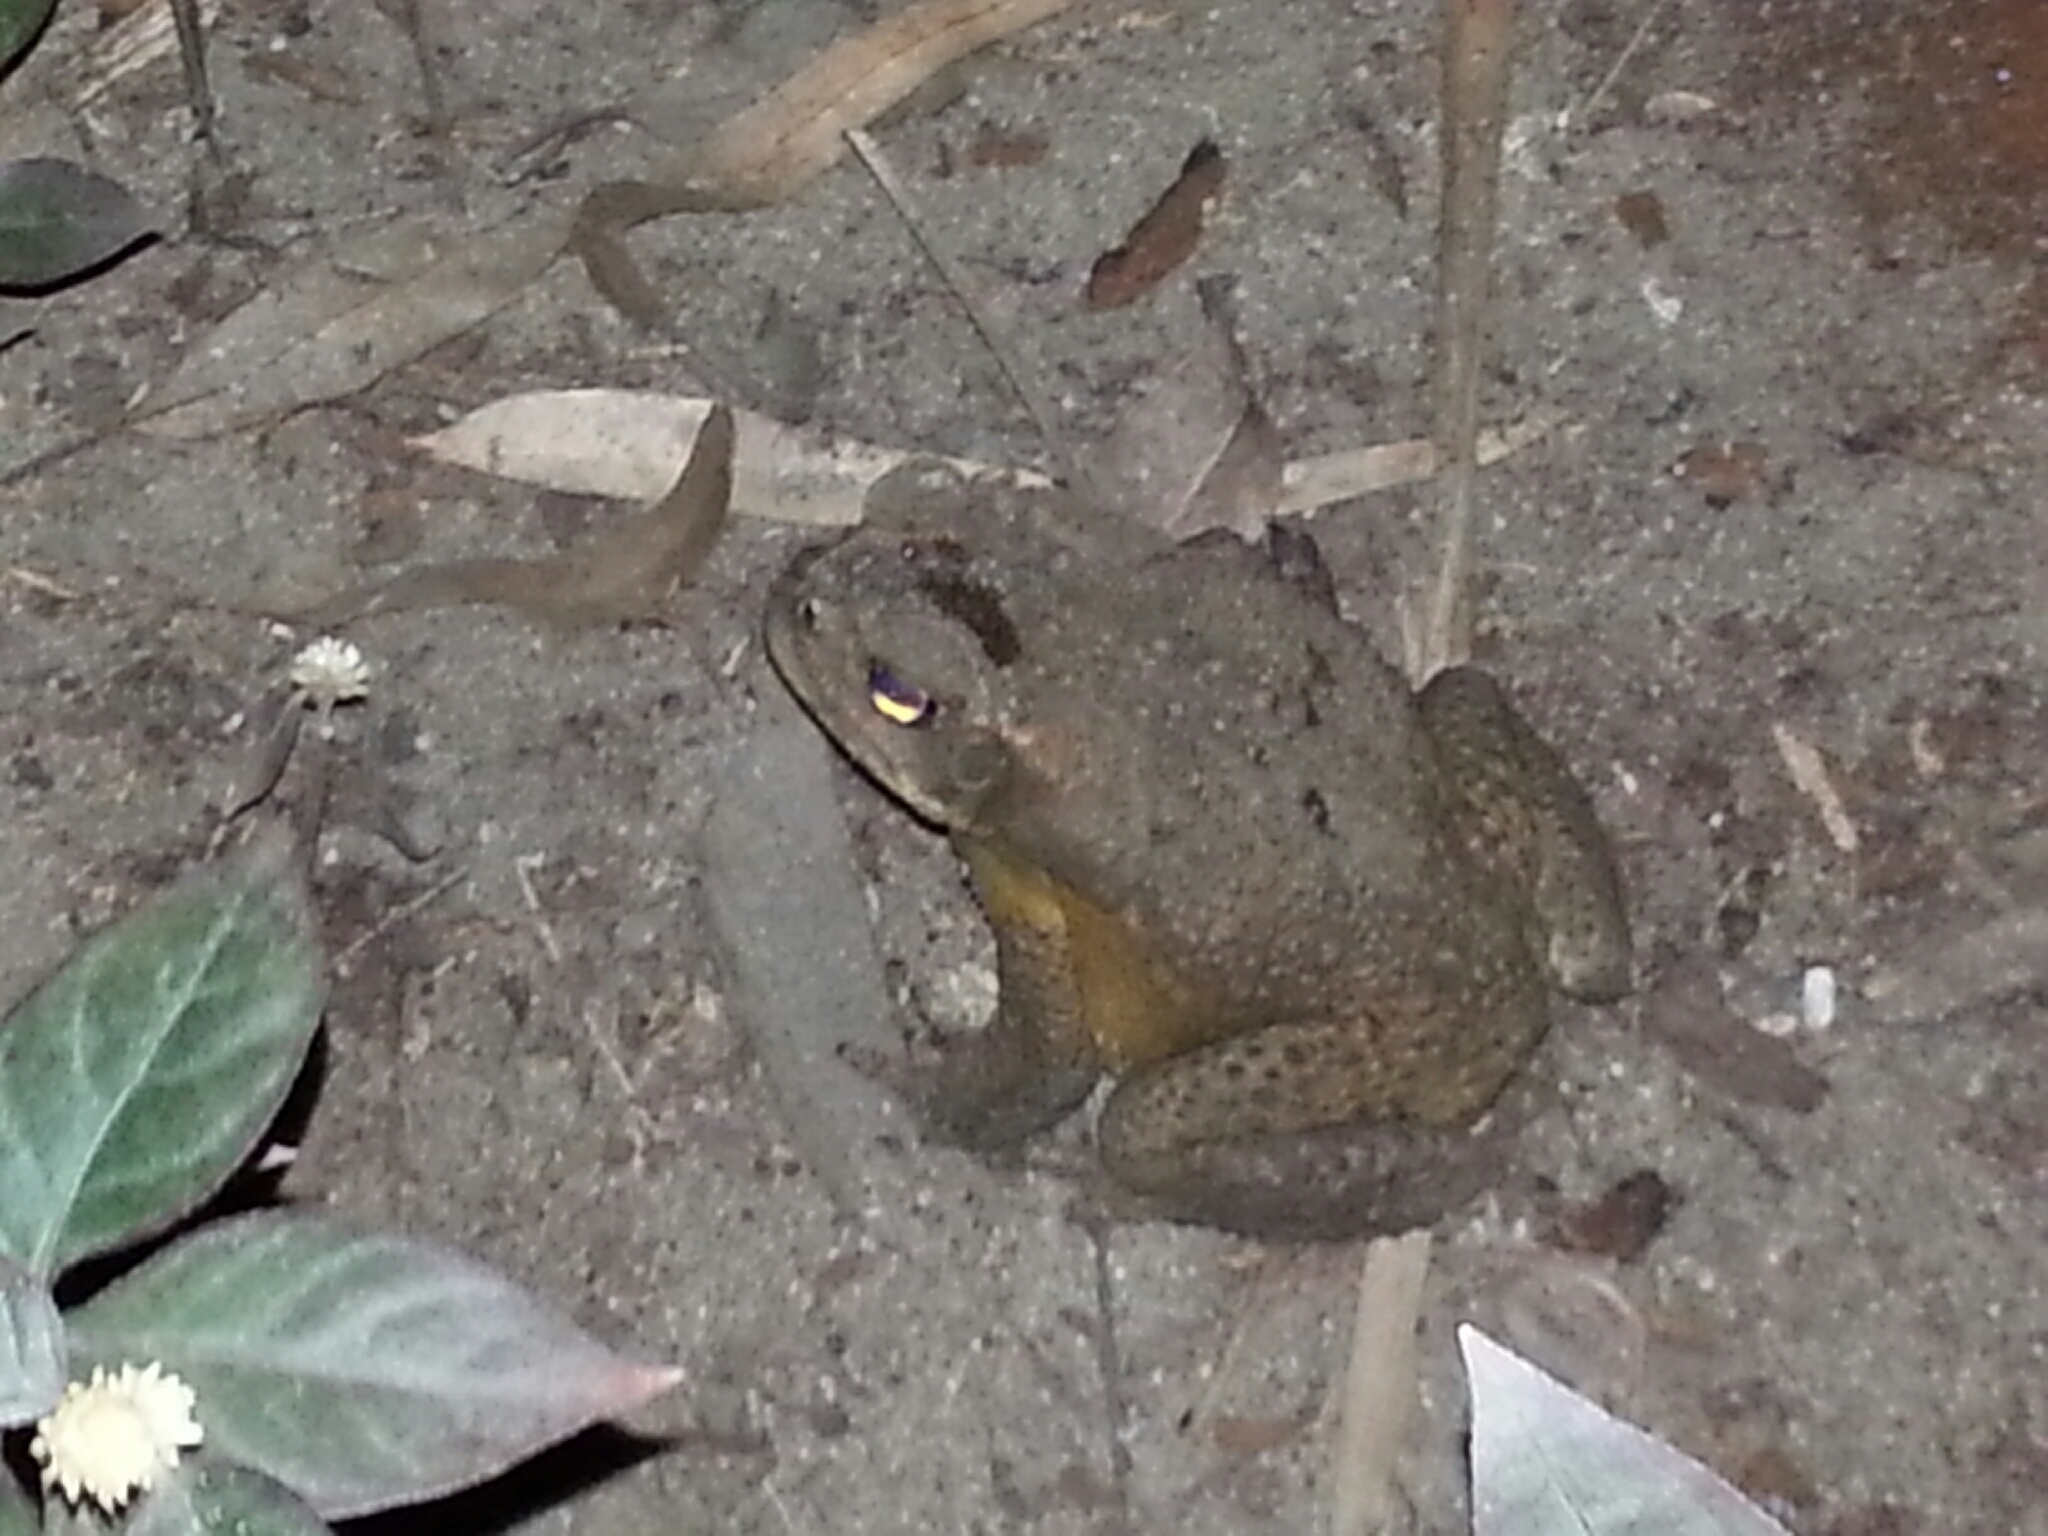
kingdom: Animalia
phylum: Chordata
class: Amphibia
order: Anura
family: Bufonidae
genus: Rhinella
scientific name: Rhinella marina
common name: Cane toad
